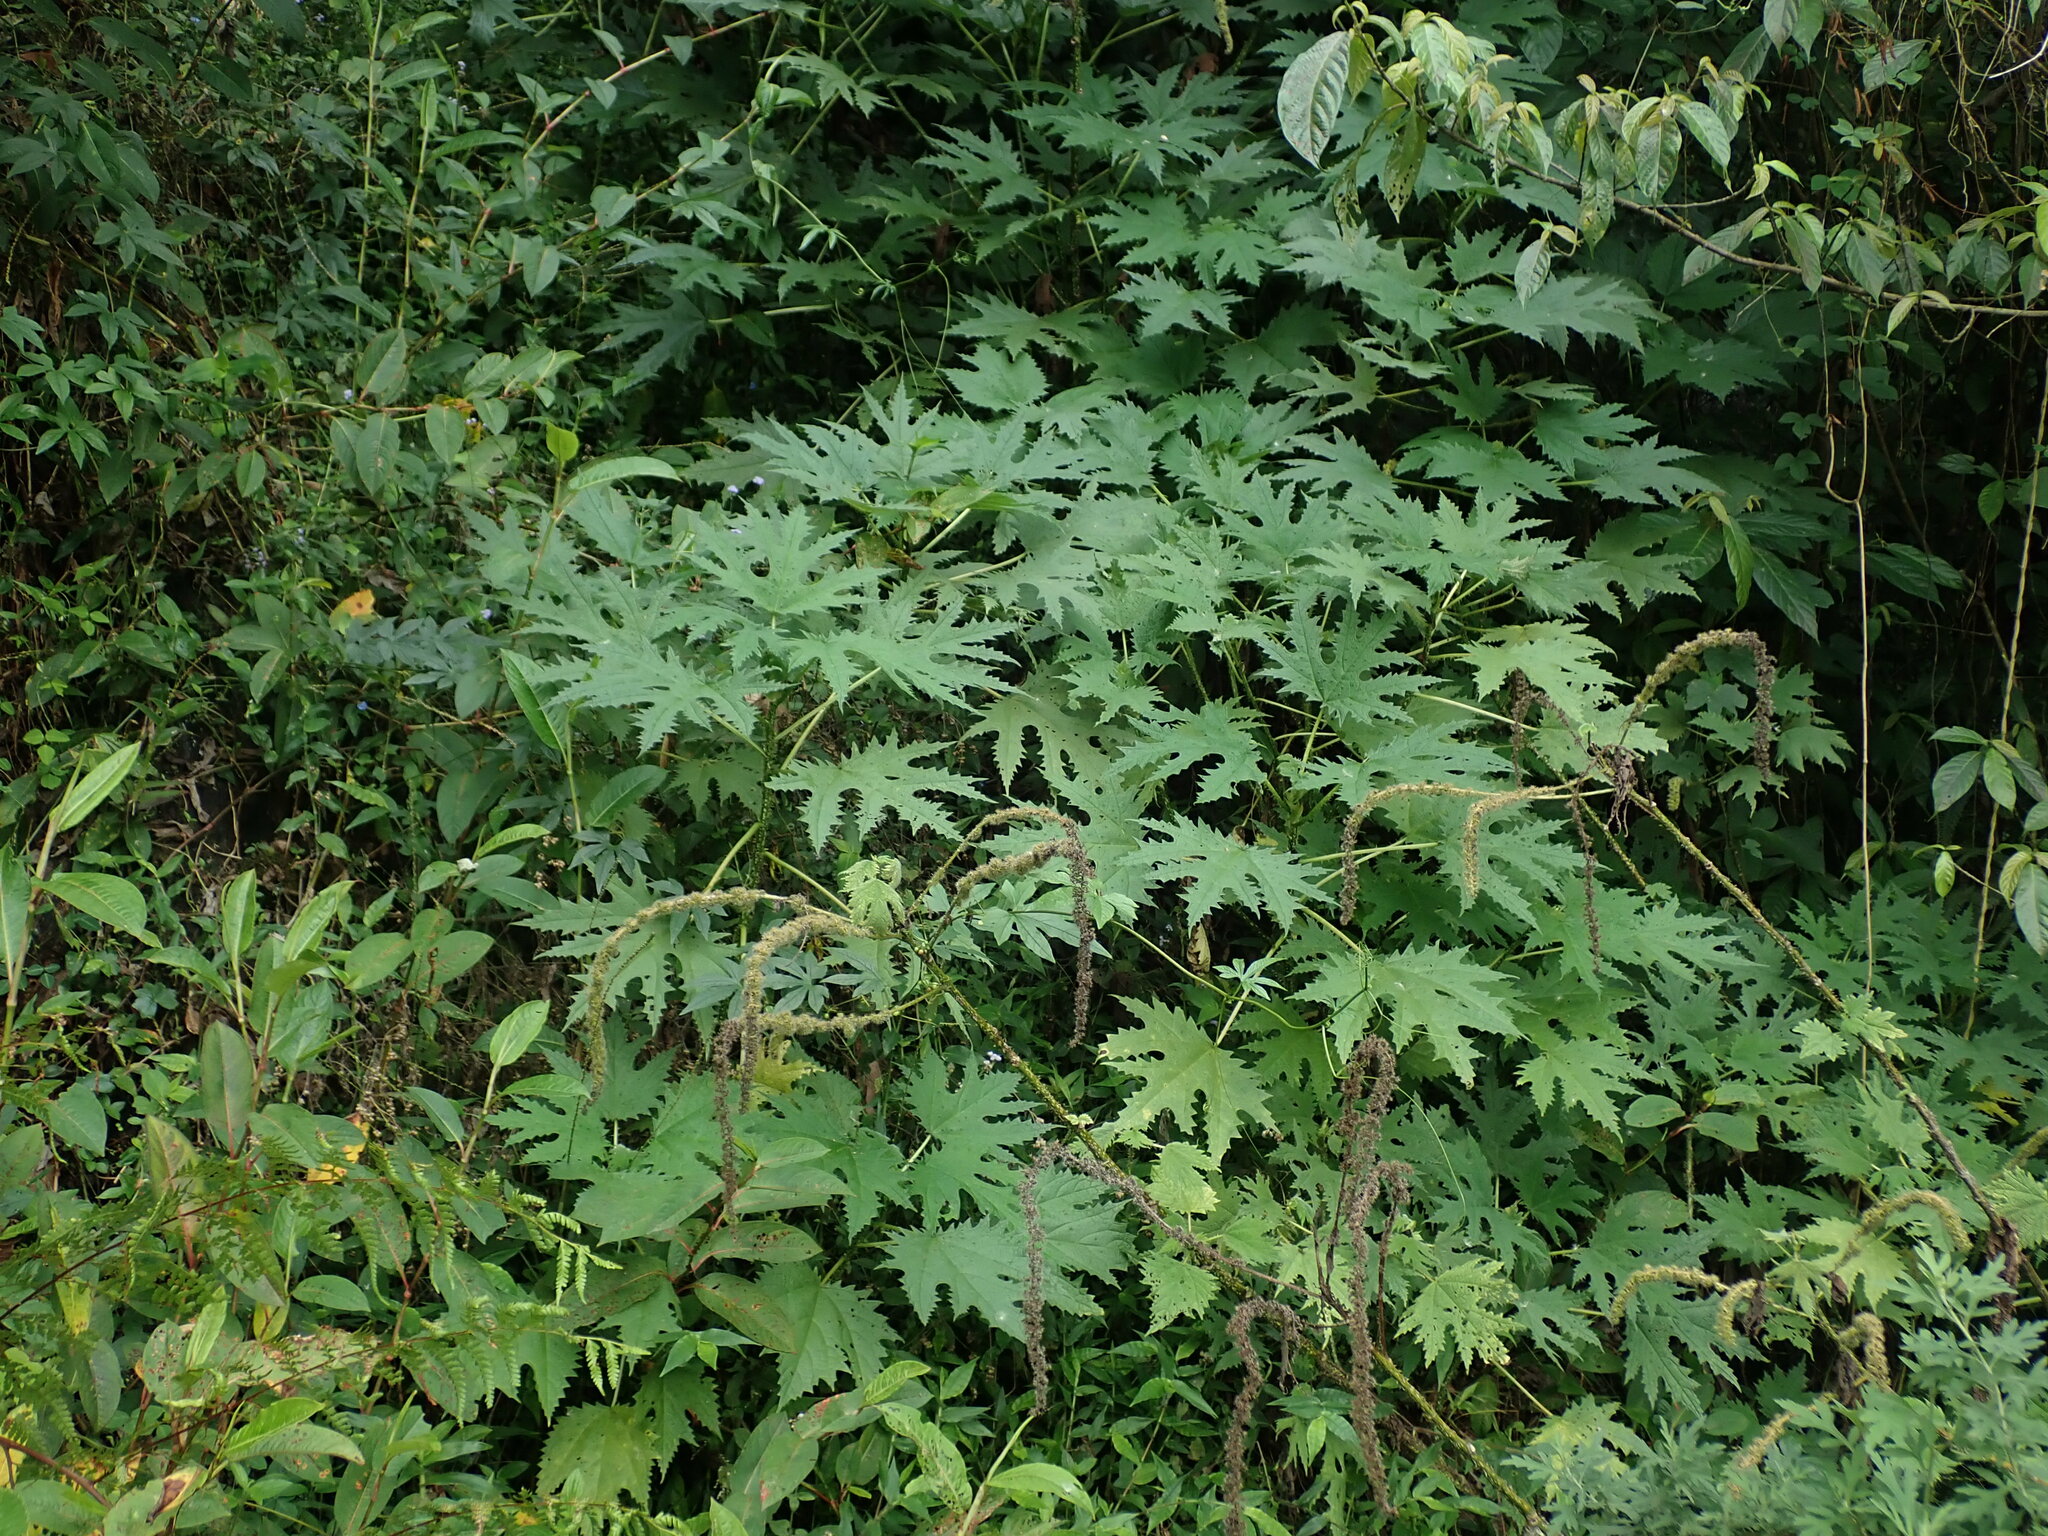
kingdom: Plantae
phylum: Tracheophyta
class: Magnoliopsida
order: Rosales
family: Urticaceae
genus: Girardinia
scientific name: Girardinia diversifolia
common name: Himalayan-nettle
